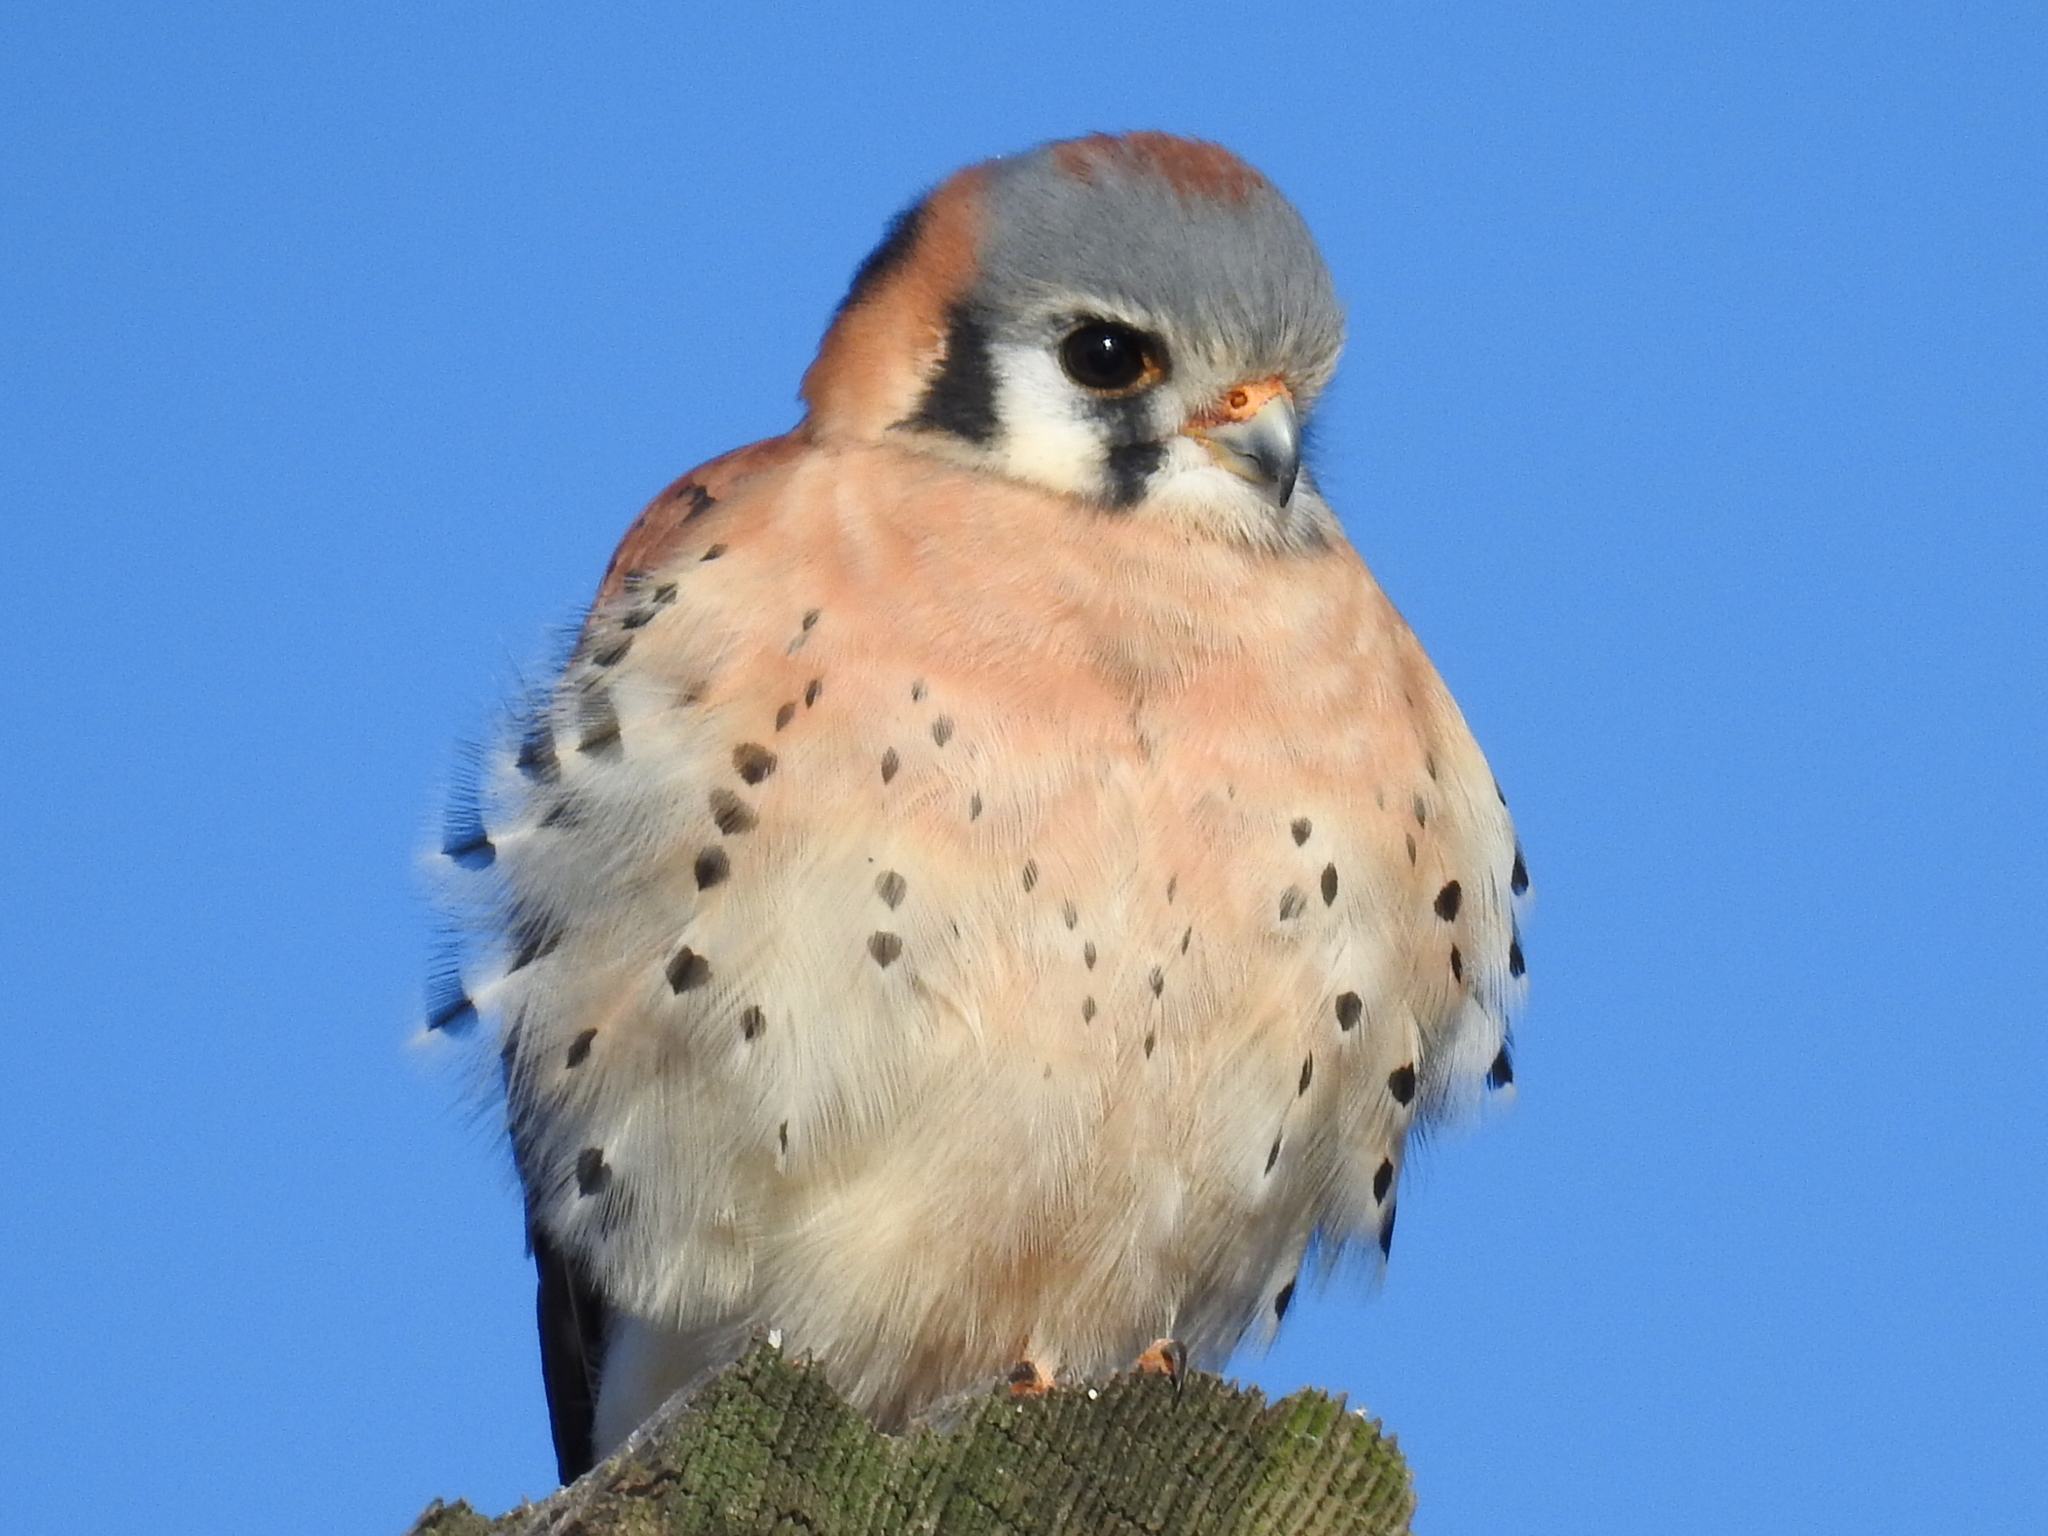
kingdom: Animalia
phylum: Chordata
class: Aves
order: Falconiformes
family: Falconidae
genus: Falco
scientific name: Falco sparverius
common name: American kestrel
